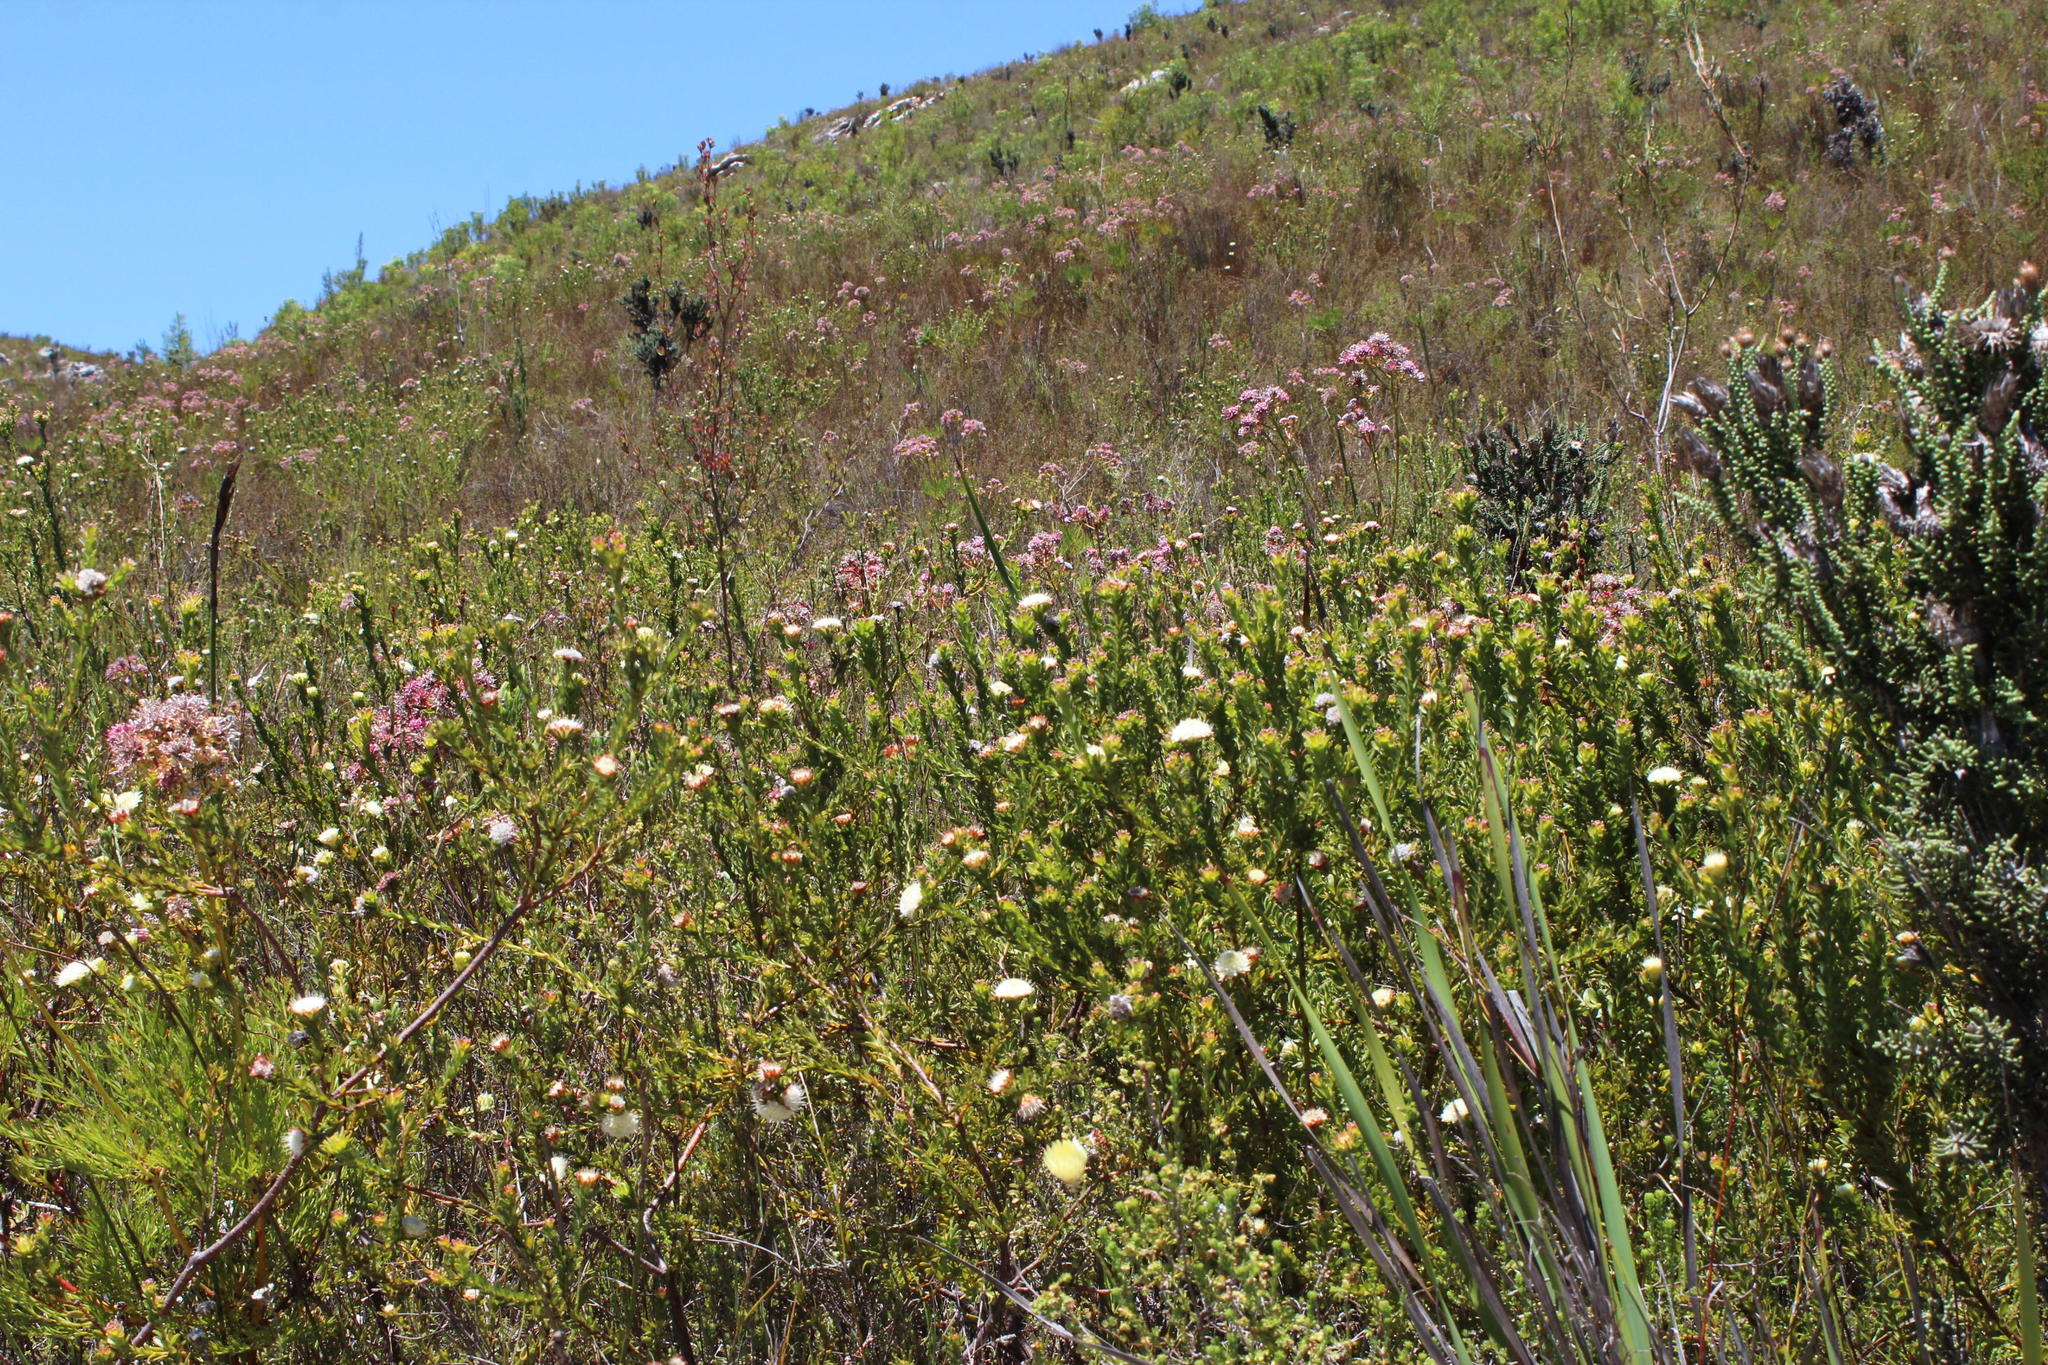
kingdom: Plantae
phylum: Tracheophyta
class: Magnoliopsida
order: Proteales
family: Proteaceae
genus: Diastella
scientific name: Diastella thymelaeoides
